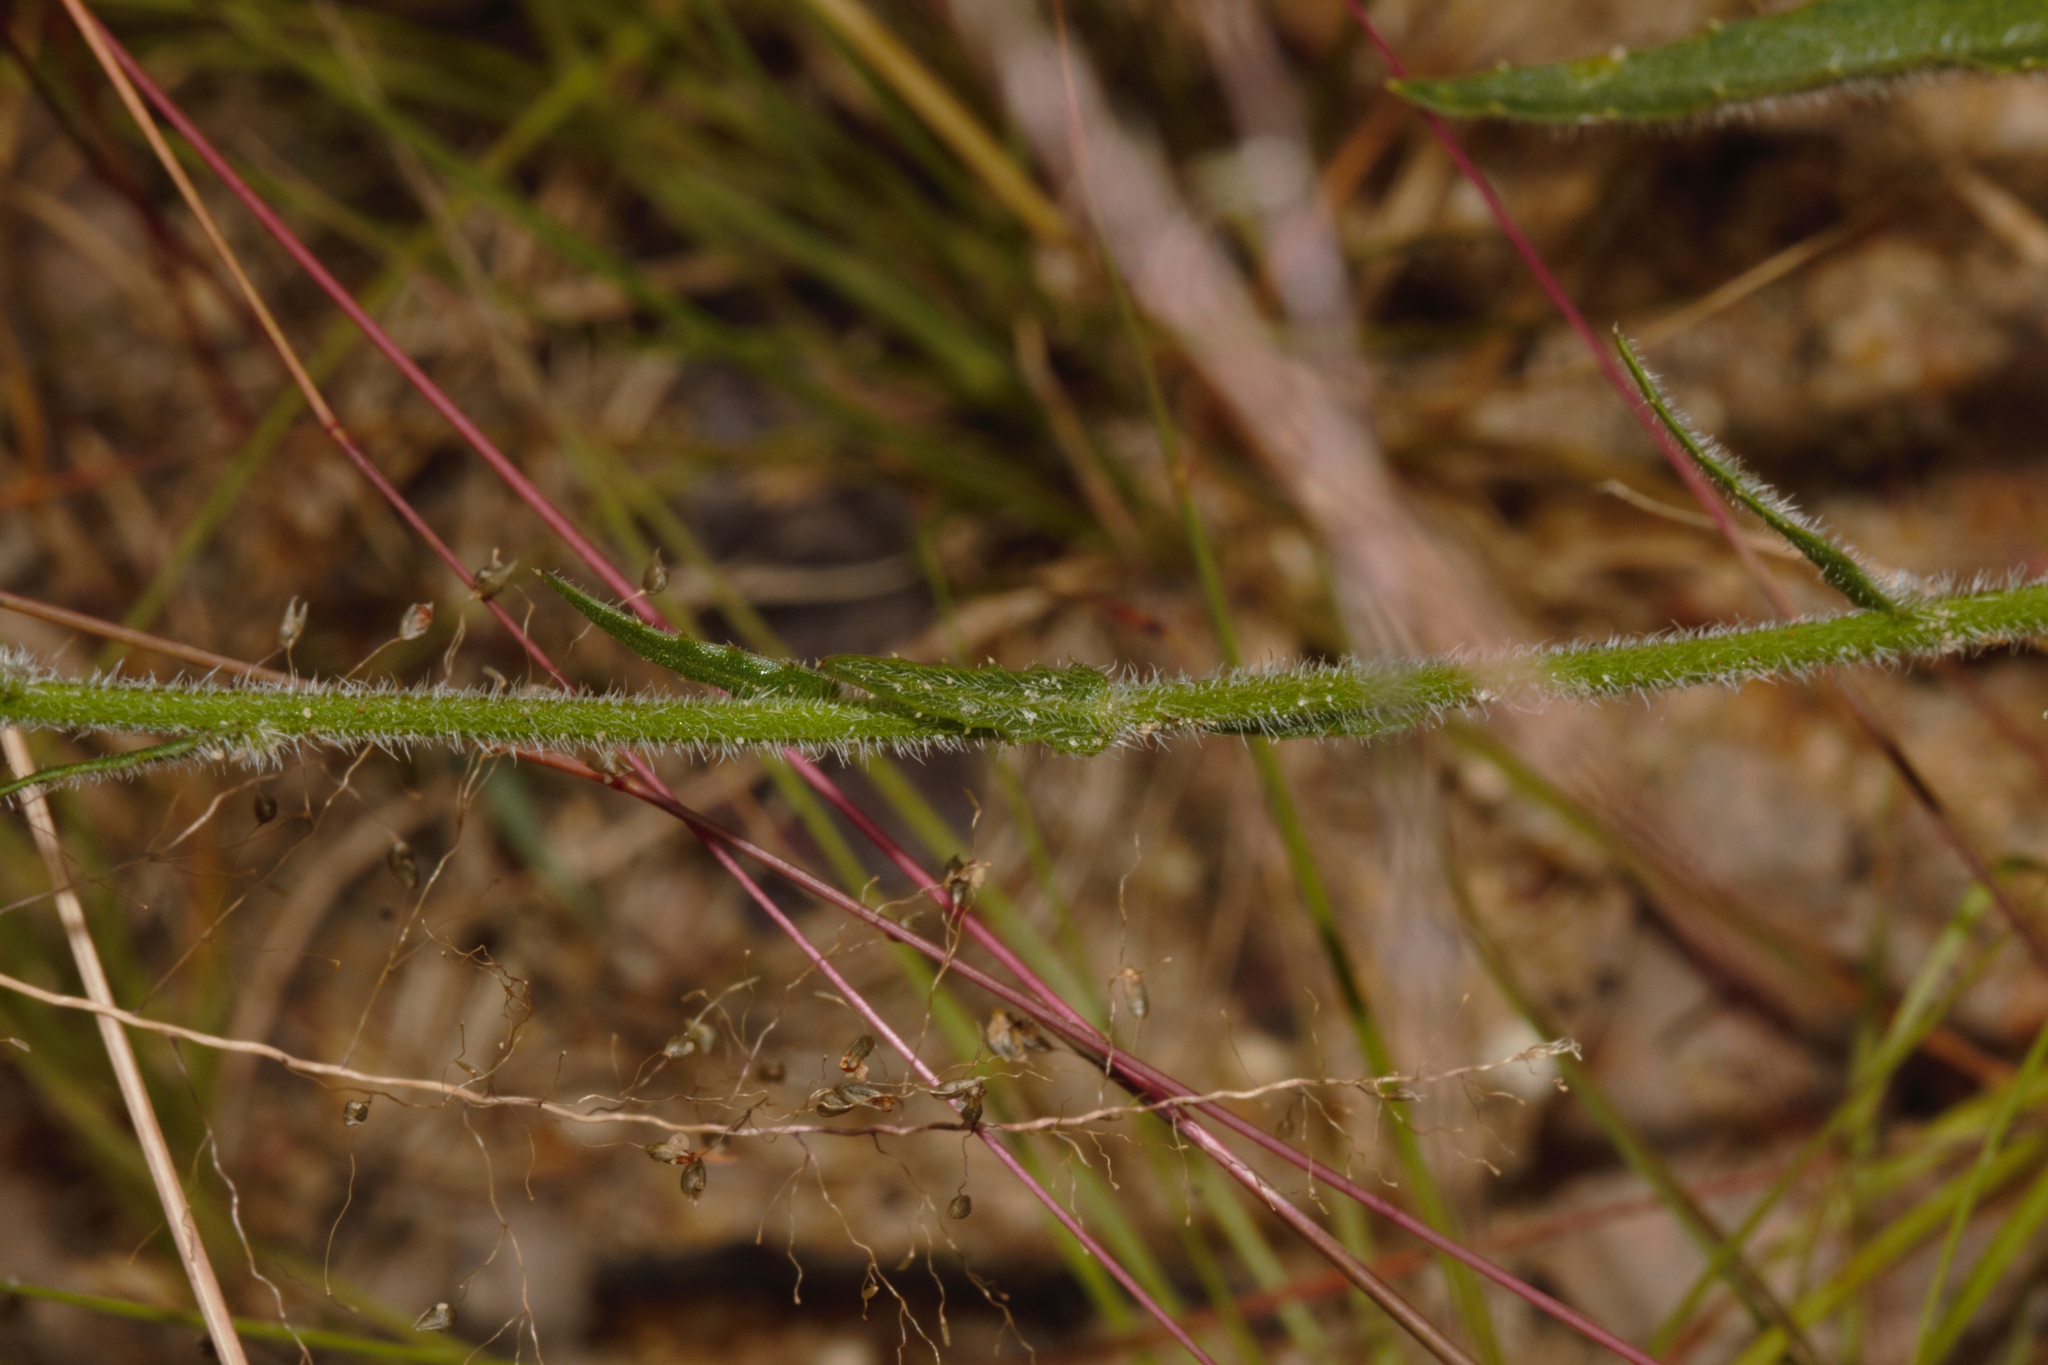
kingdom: Plantae
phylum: Tracheophyta
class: Magnoliopsida
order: Asterales
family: Campanulaceae
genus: Wahlenbergia
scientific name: Wahlenbergia napiformis
